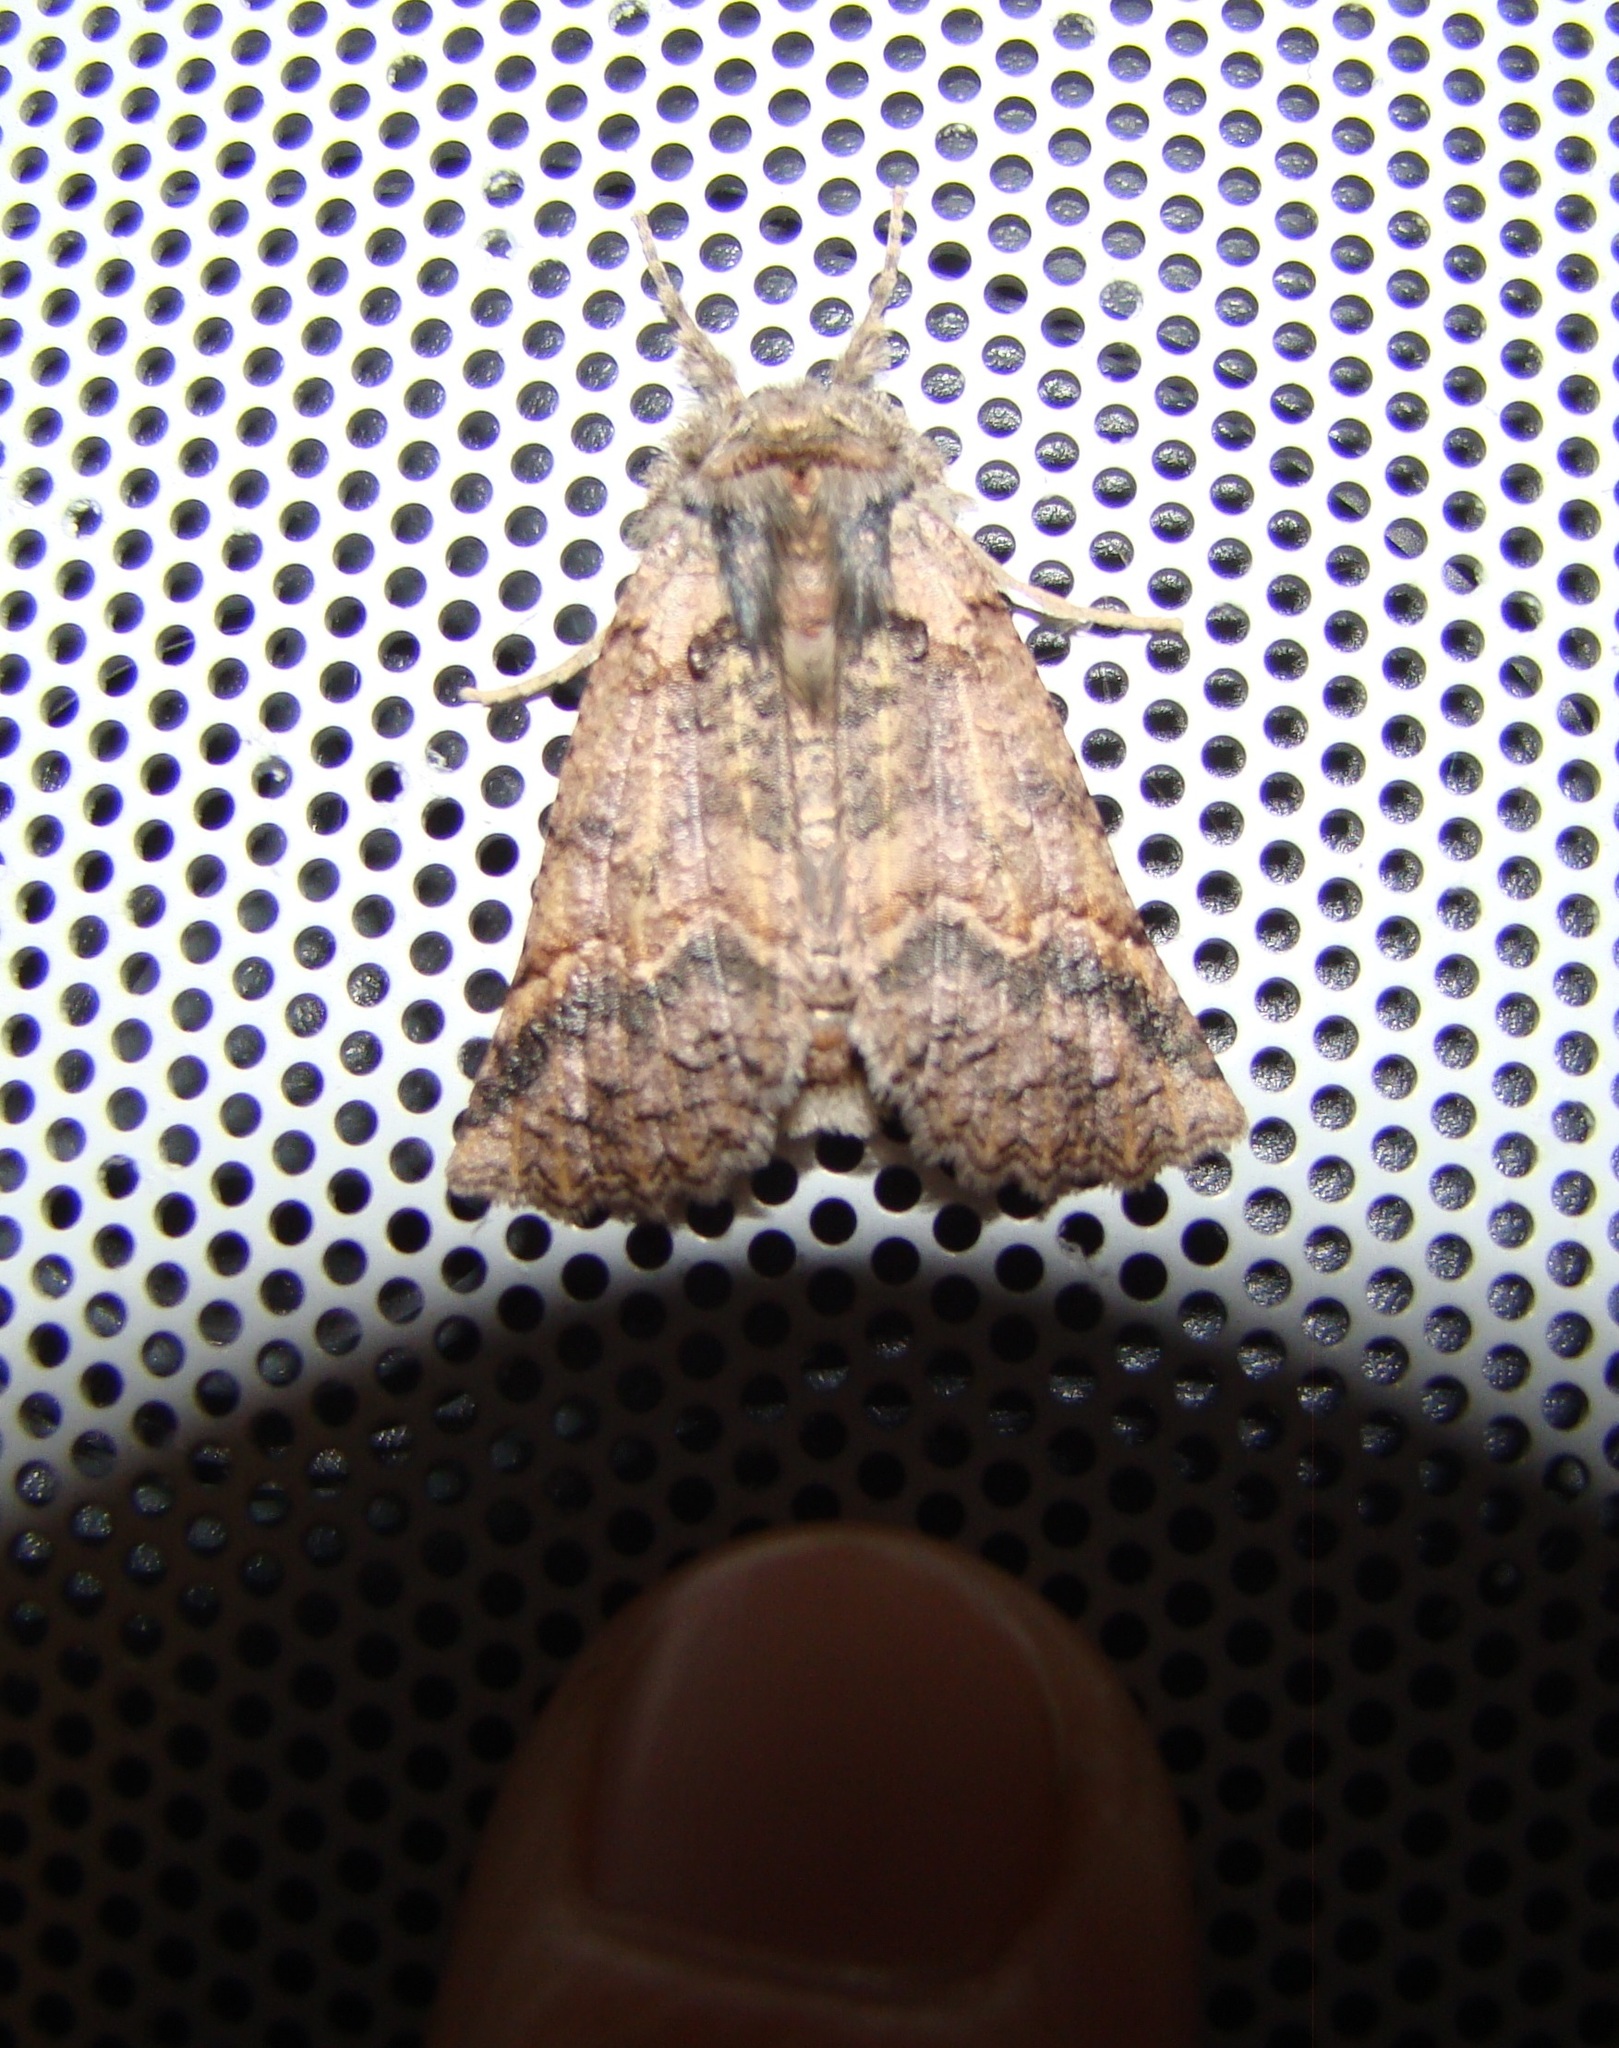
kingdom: Animalia
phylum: Arthropoda
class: Insecta
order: Lepidoptera
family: Geometridae
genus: Declana
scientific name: Declana floccosa
